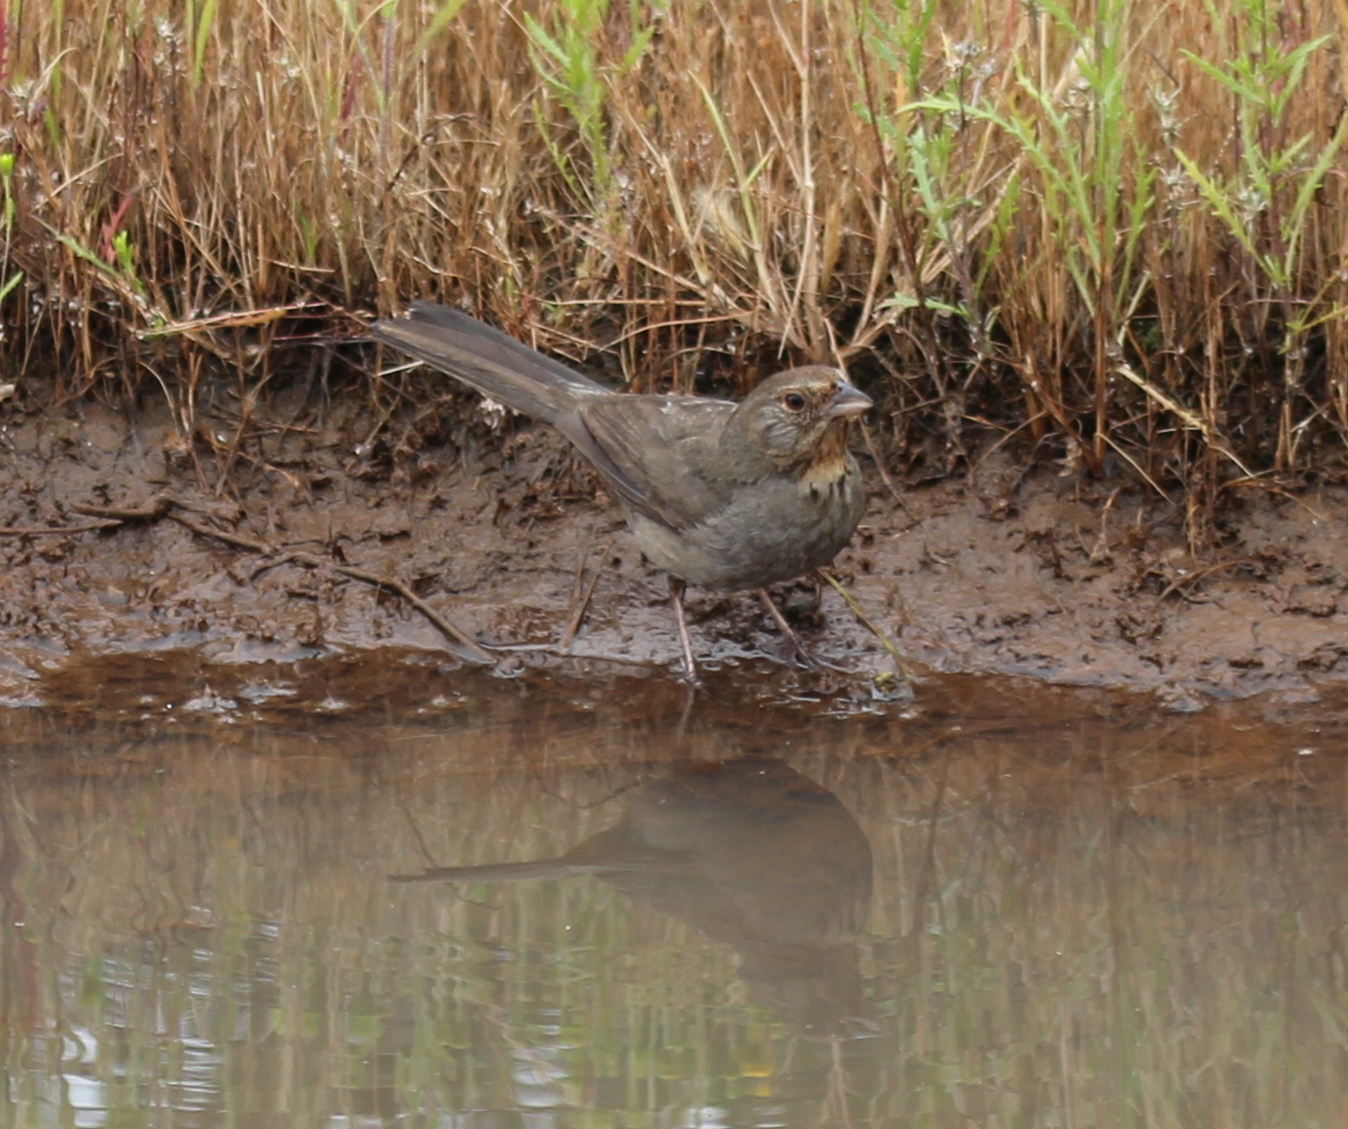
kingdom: Animalia
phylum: Chordata
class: Aves
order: Passeriformes
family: Passerellidae
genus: Melozone
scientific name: Melozone crissalis
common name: California towhee
